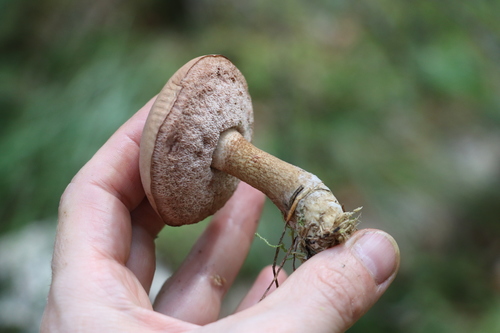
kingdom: Fungi
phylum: Basidiomycota
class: Agaricomycetes
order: Boletales
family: Boletaceae
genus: Tylopilus
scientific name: Tylopilus felleus
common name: Bitter bolete
